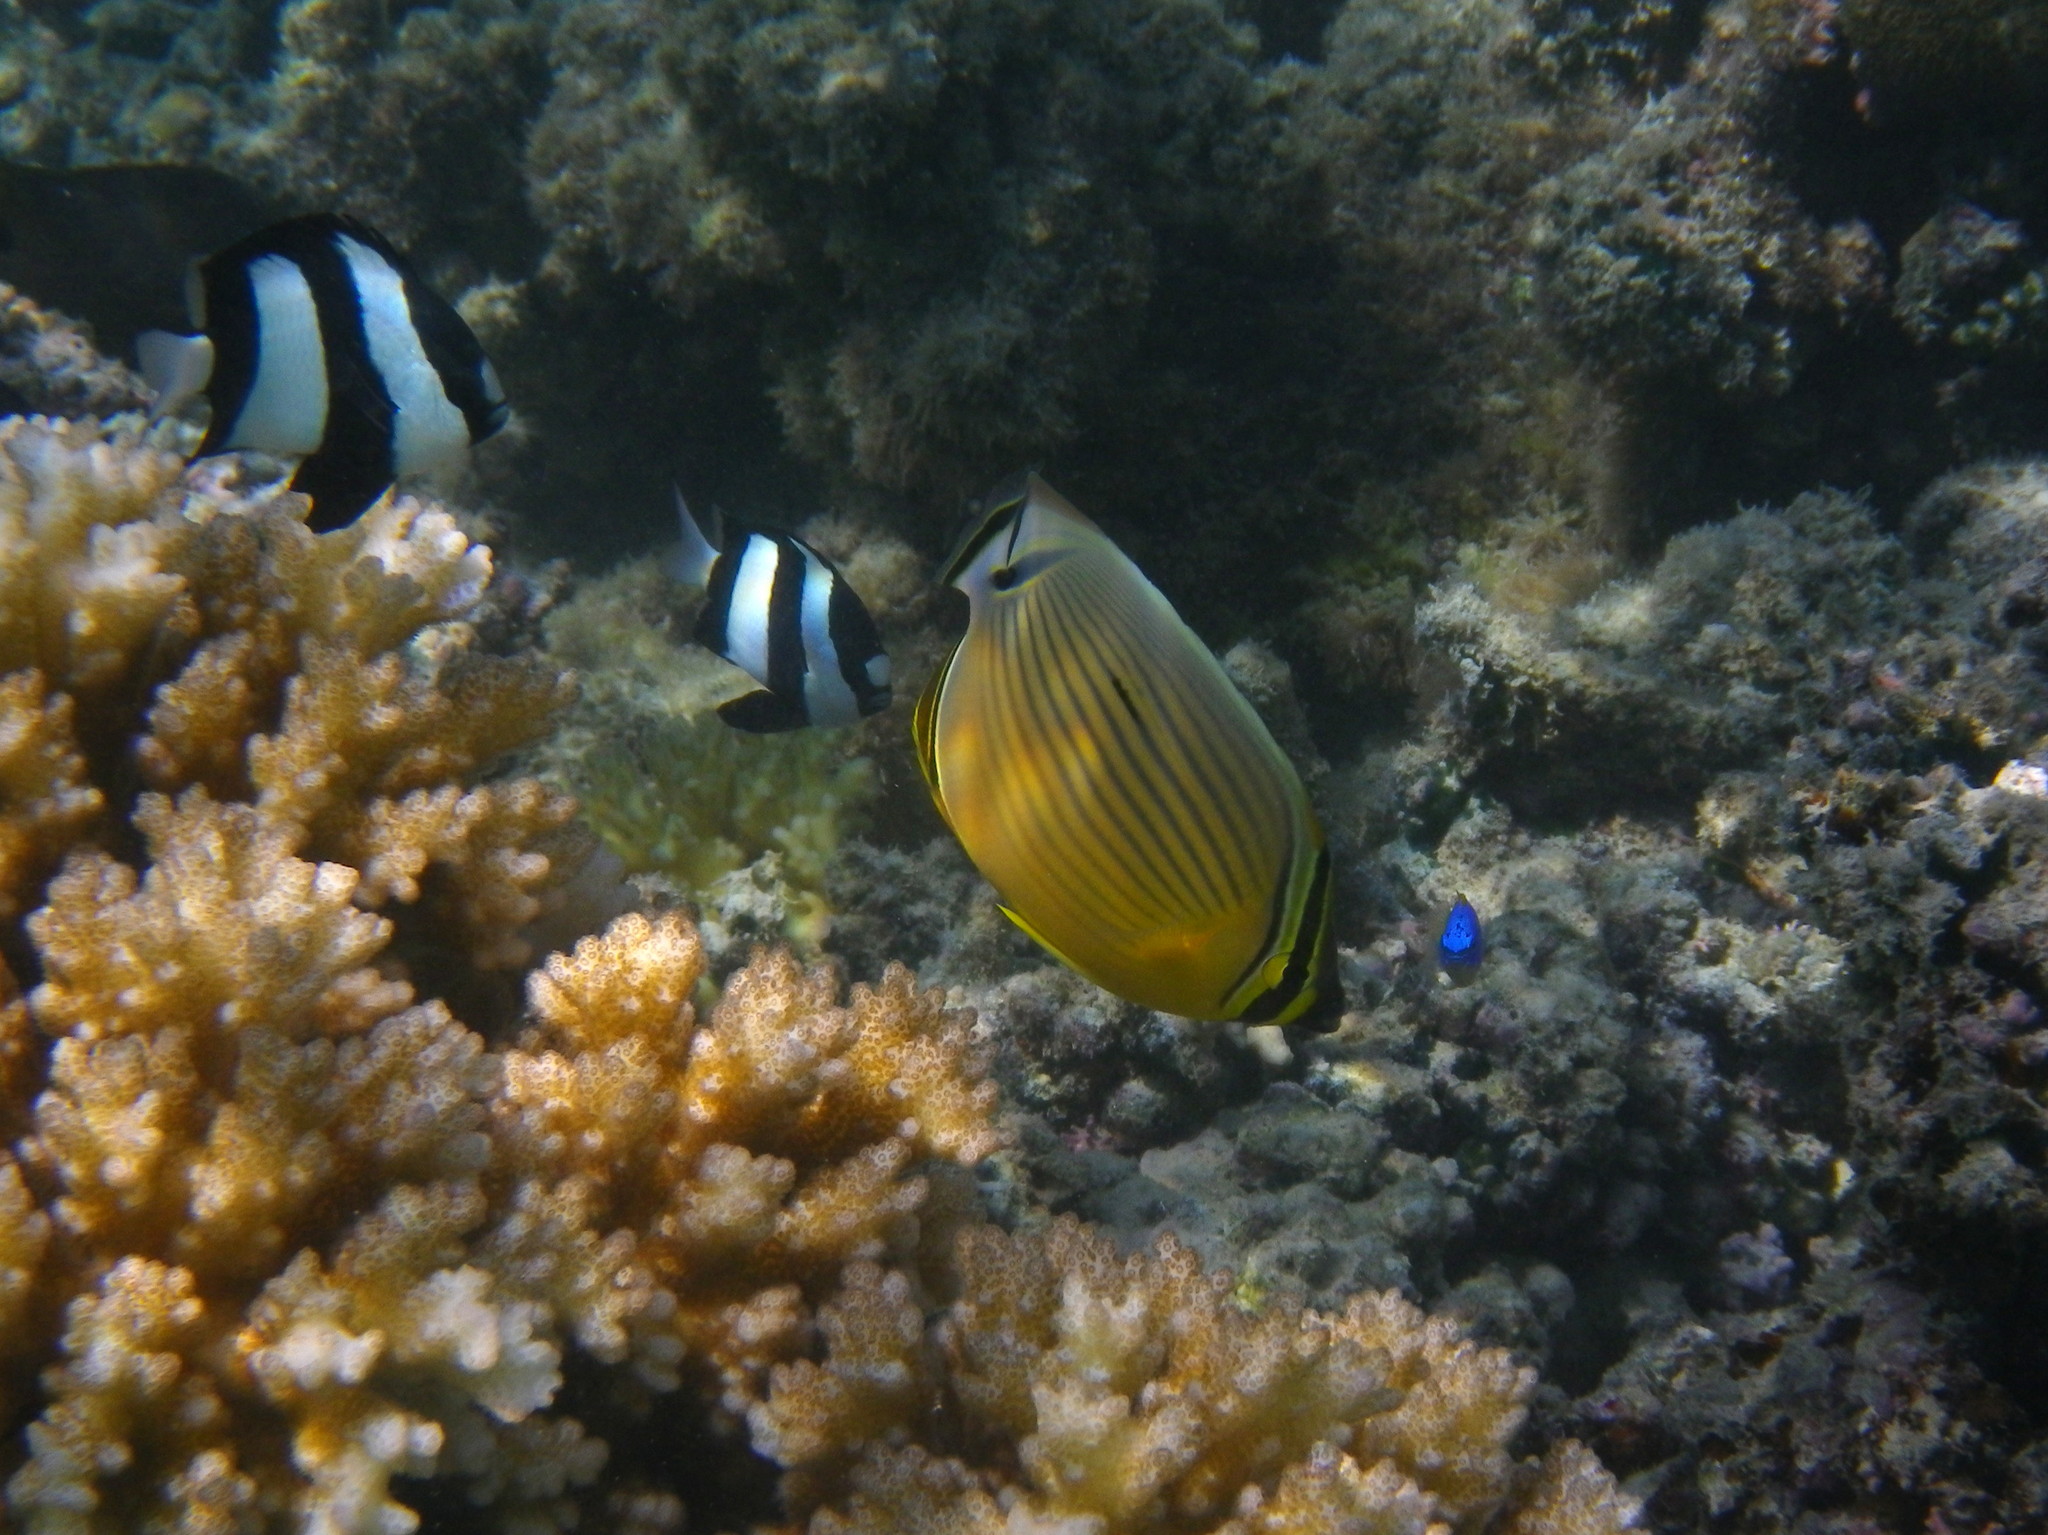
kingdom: Animalia
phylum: Chordata
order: Perciformes
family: Chaetodontidae
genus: Chaetodon
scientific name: Chaetodon lunulatus
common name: Redfin butterflyfish
